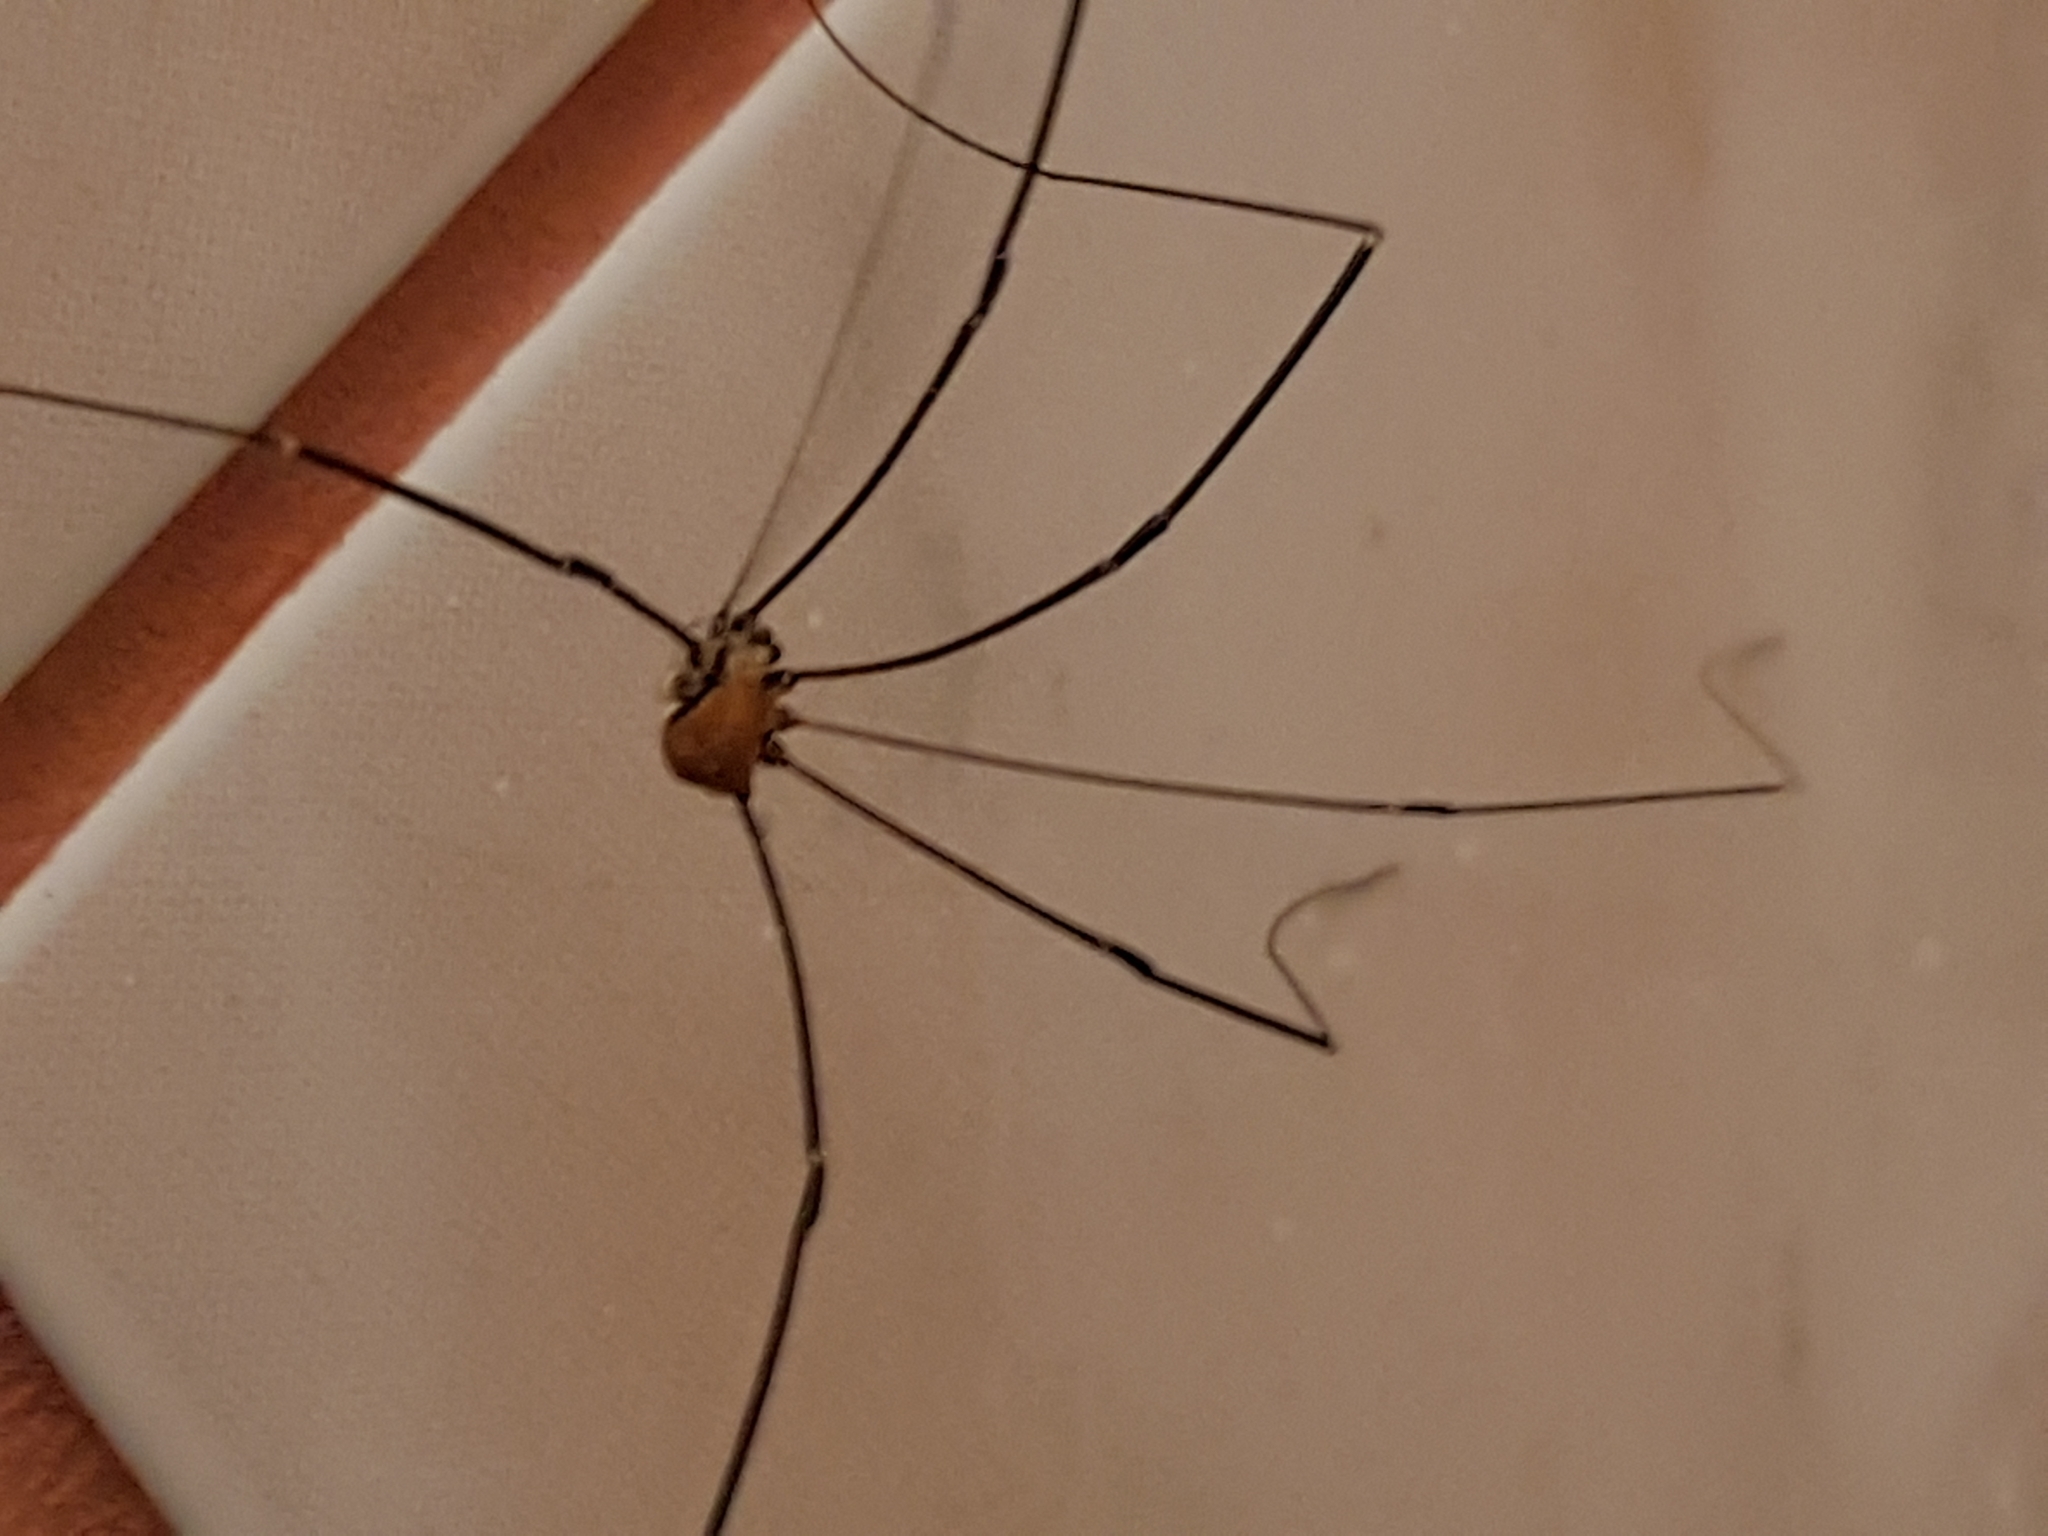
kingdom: Animalia
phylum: Arthropoda
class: Arachnida
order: Opiliones
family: Sclerosomatidae
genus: Leiobunum
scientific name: Leiobunum limbatum
